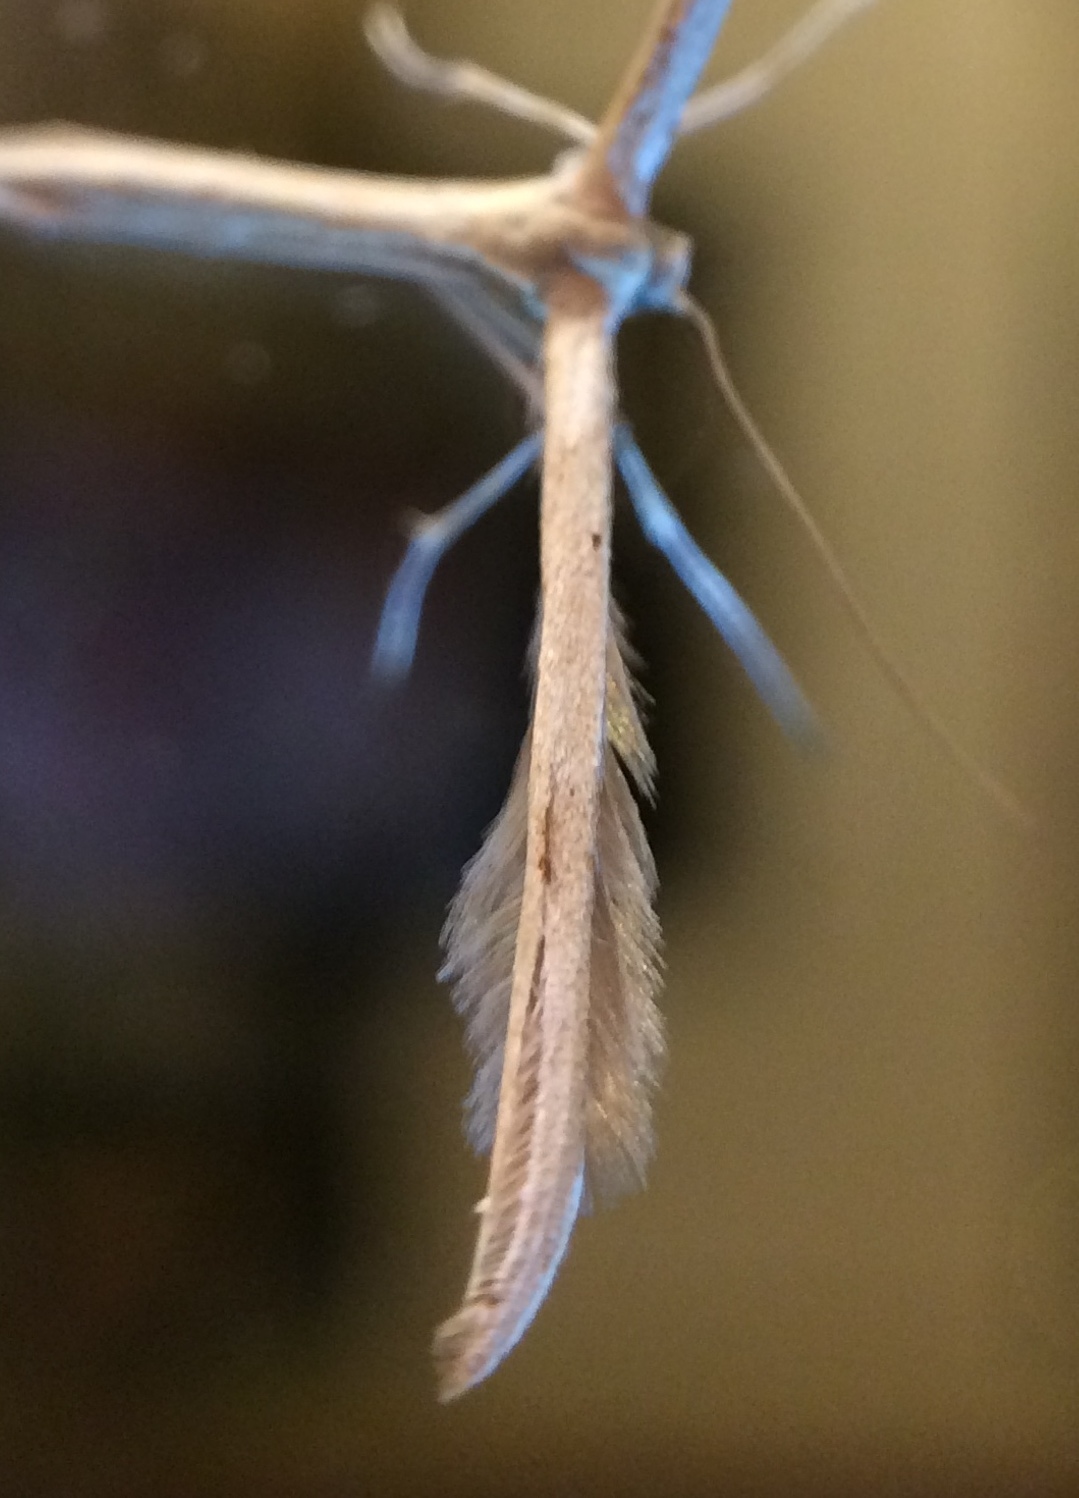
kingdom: Animalia
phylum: Arthropoda
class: Insecta
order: Lepidoptera
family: Pterophoridae
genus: Emmelina
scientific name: Emmelina monodactyla
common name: Common plume
